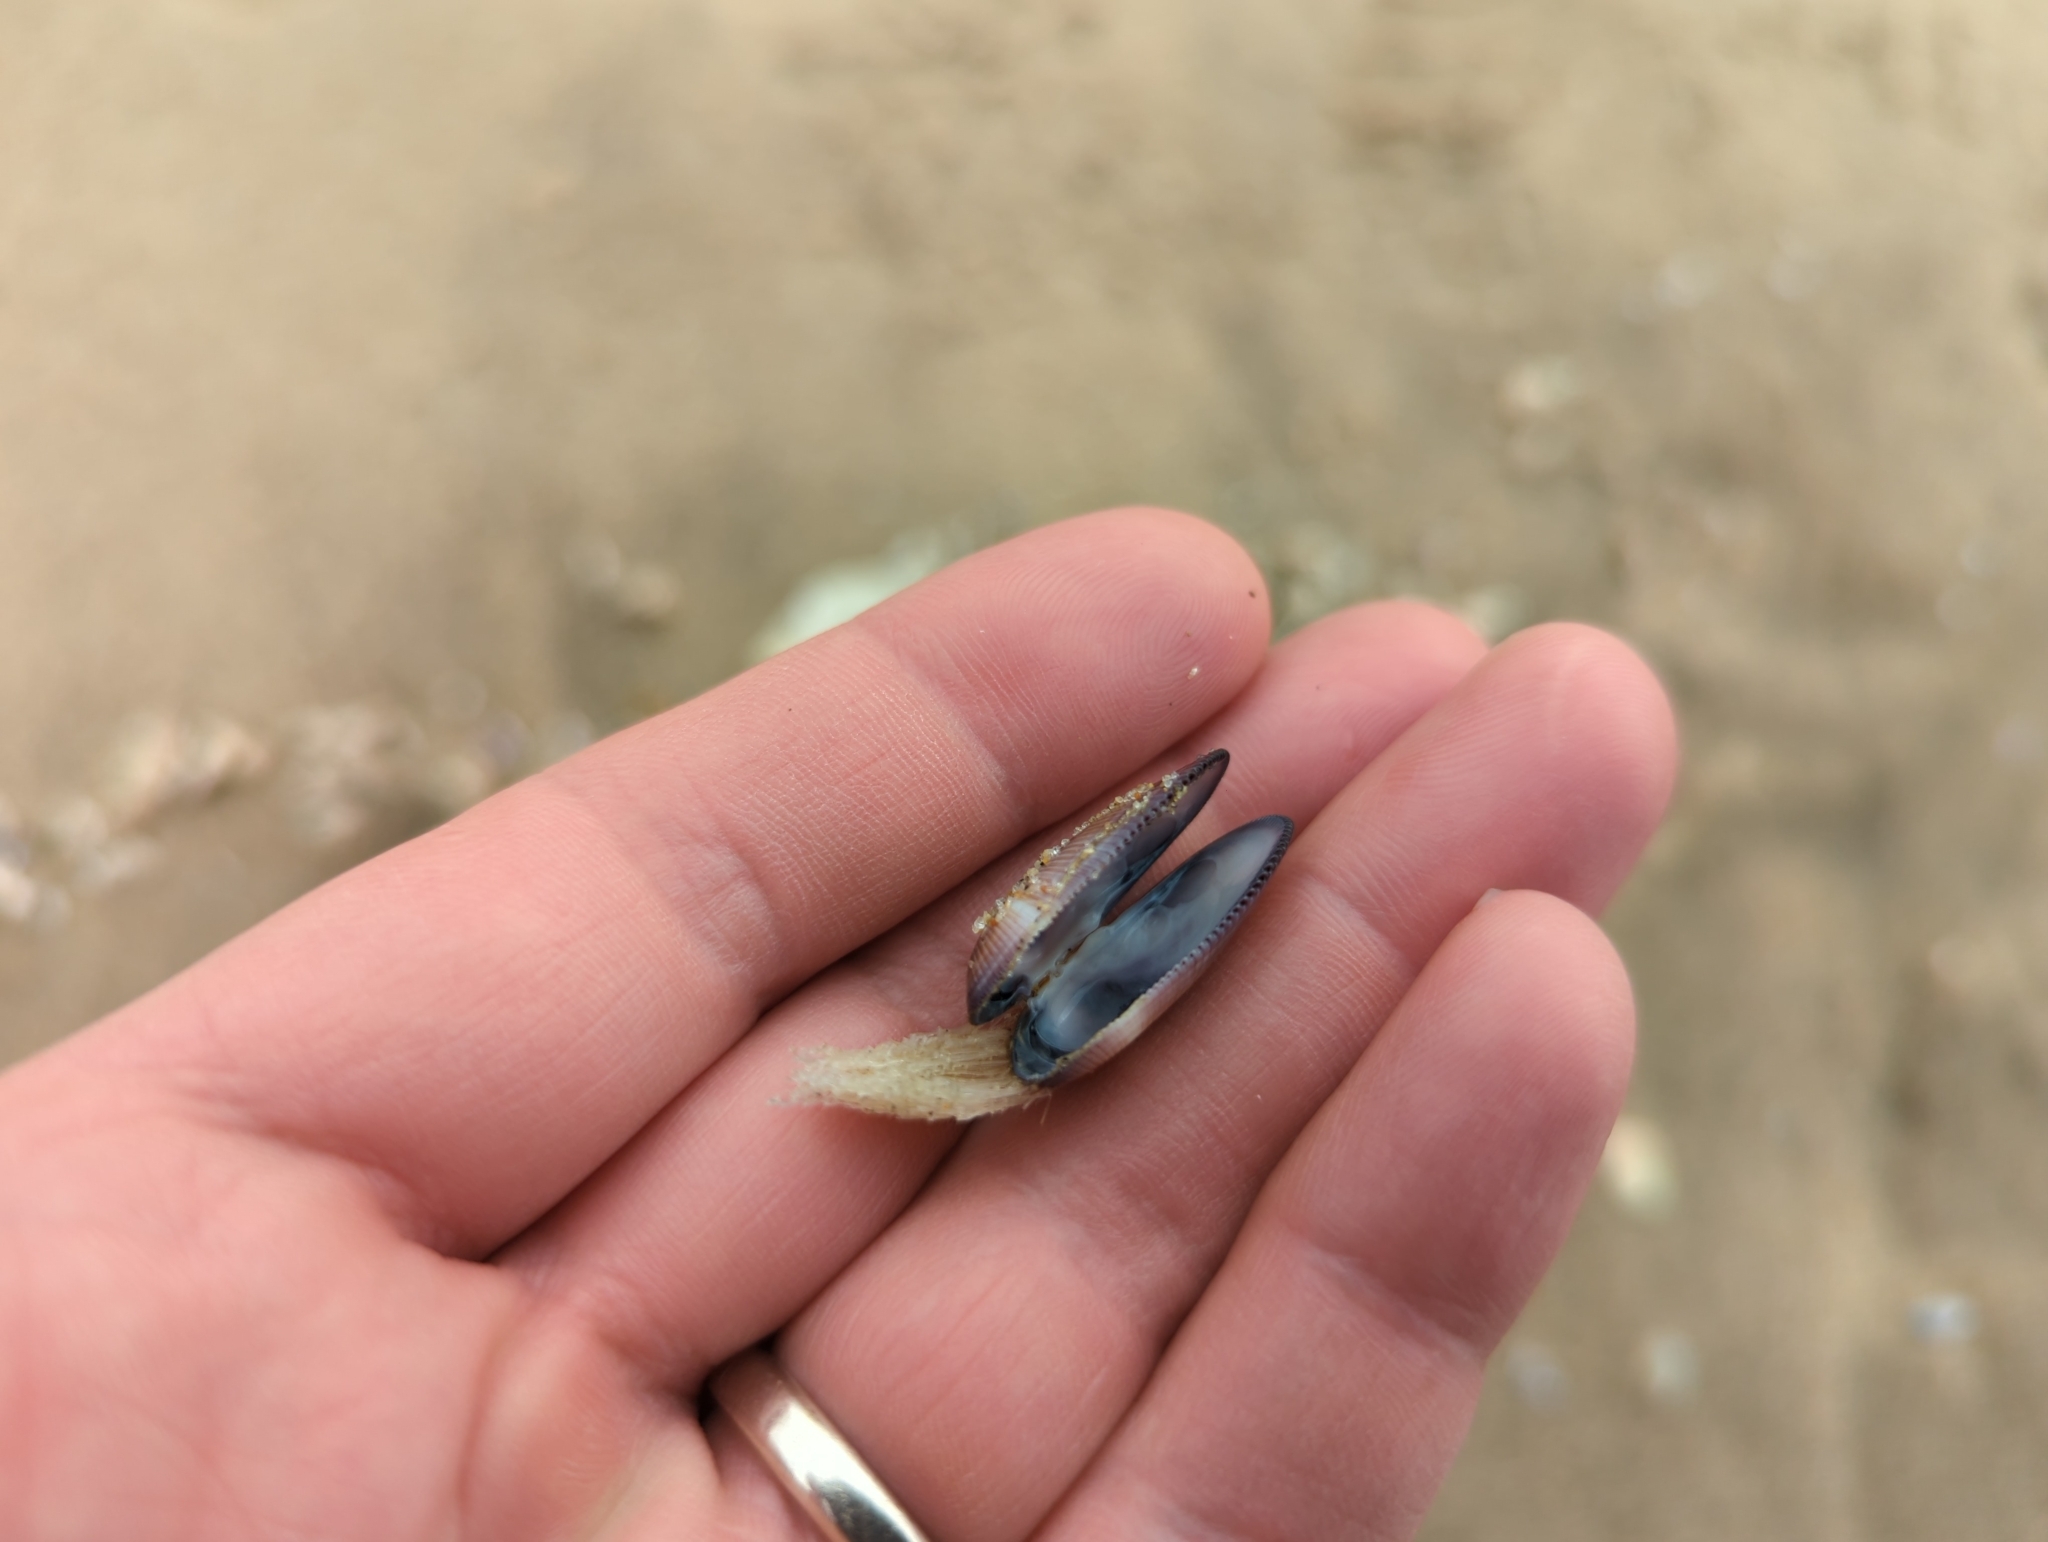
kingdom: Animalia
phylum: Mollusca
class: Bivalvia
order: Cardiida
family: Donacidae
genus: Donax
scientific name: Donax gouldii
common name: Gould beanclam
